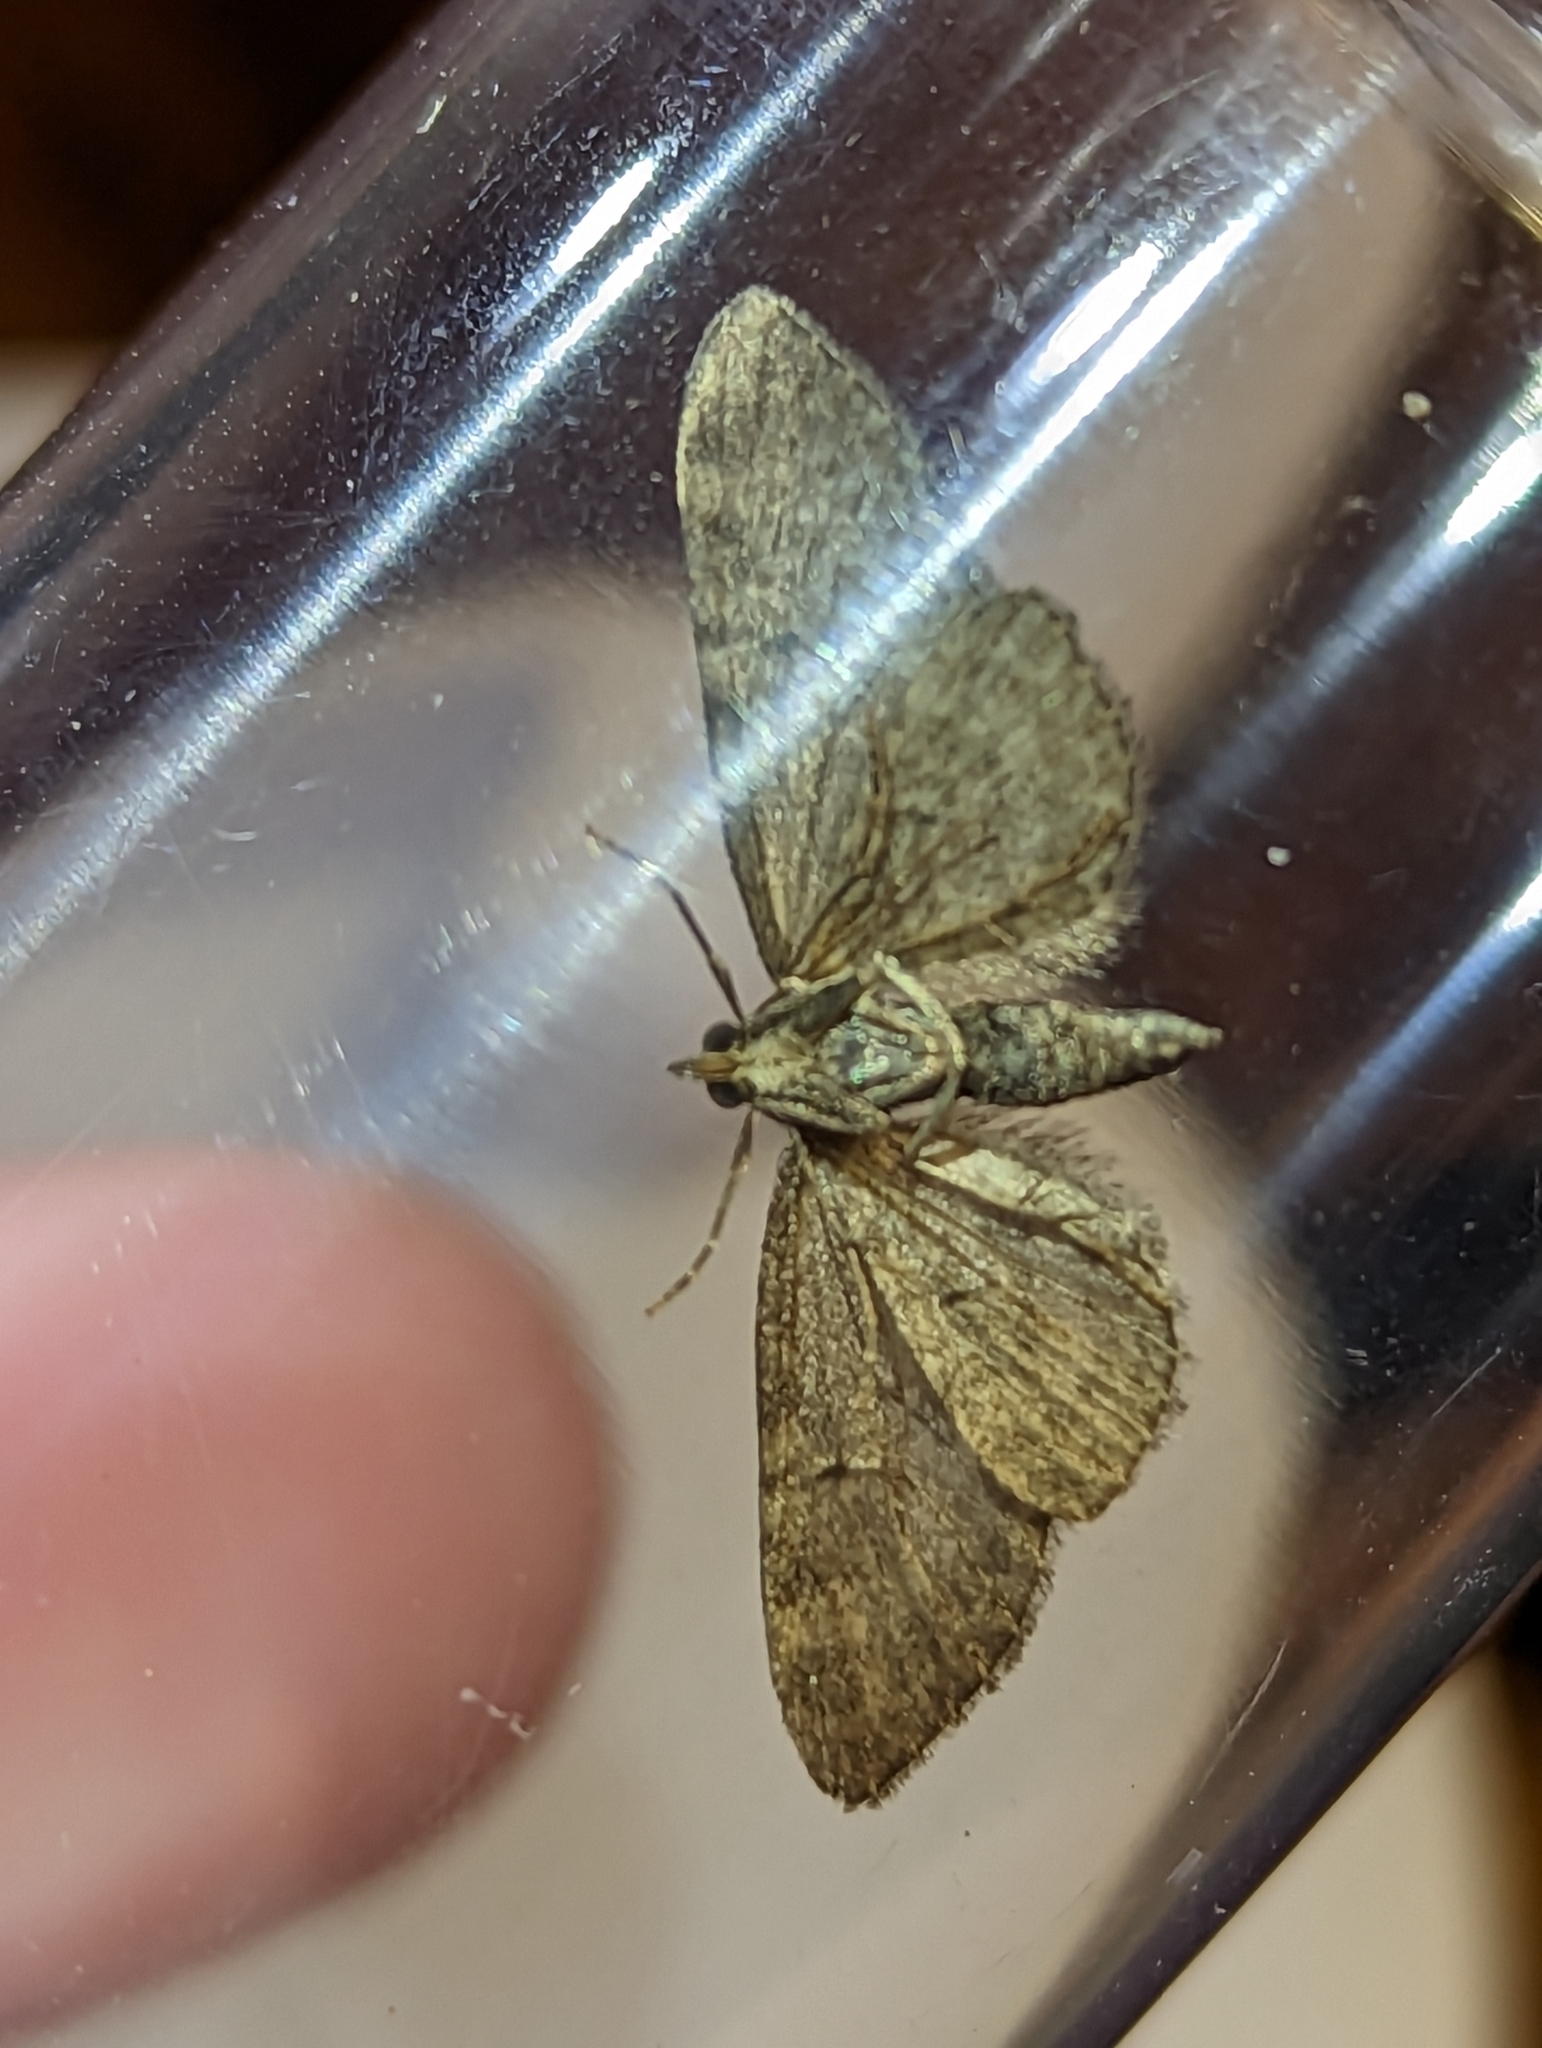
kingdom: Animalia
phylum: Arthropoda
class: Insecta
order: Lepidoptera
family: Geometridae
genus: Eupithecia
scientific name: Eupithecia vulgata
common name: Common pug
